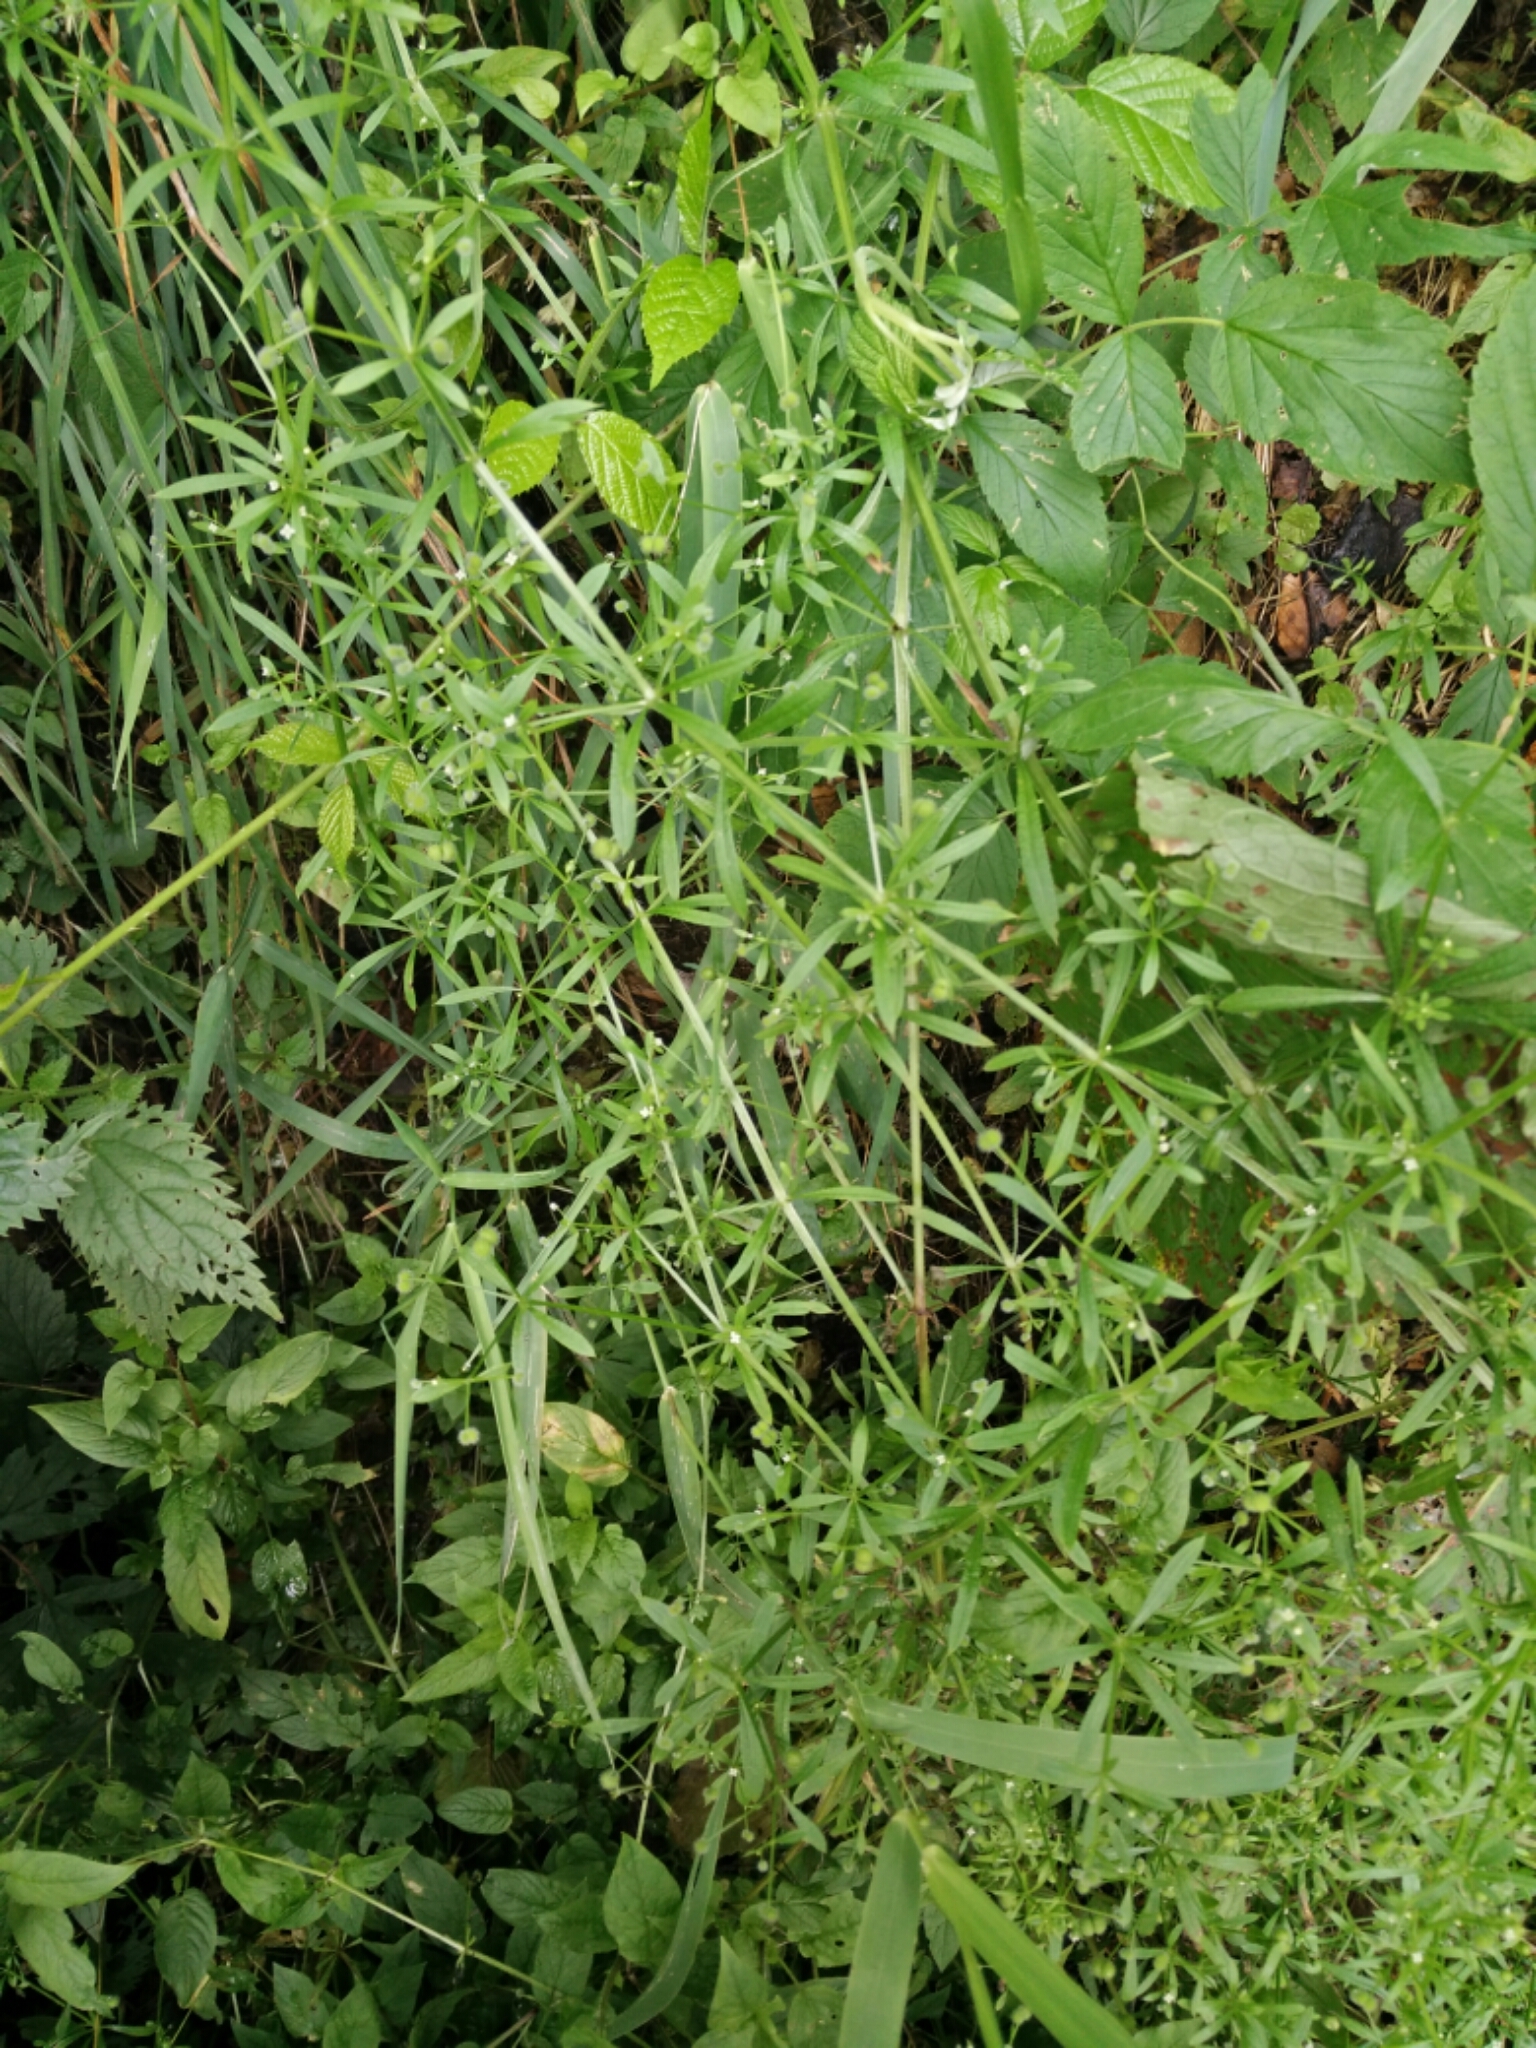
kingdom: Plantae
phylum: Tracheophyta
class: Magnoliopsida
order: Gentianales
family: Rubiaceae
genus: Galium
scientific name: Galium aparine
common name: Cleavers
